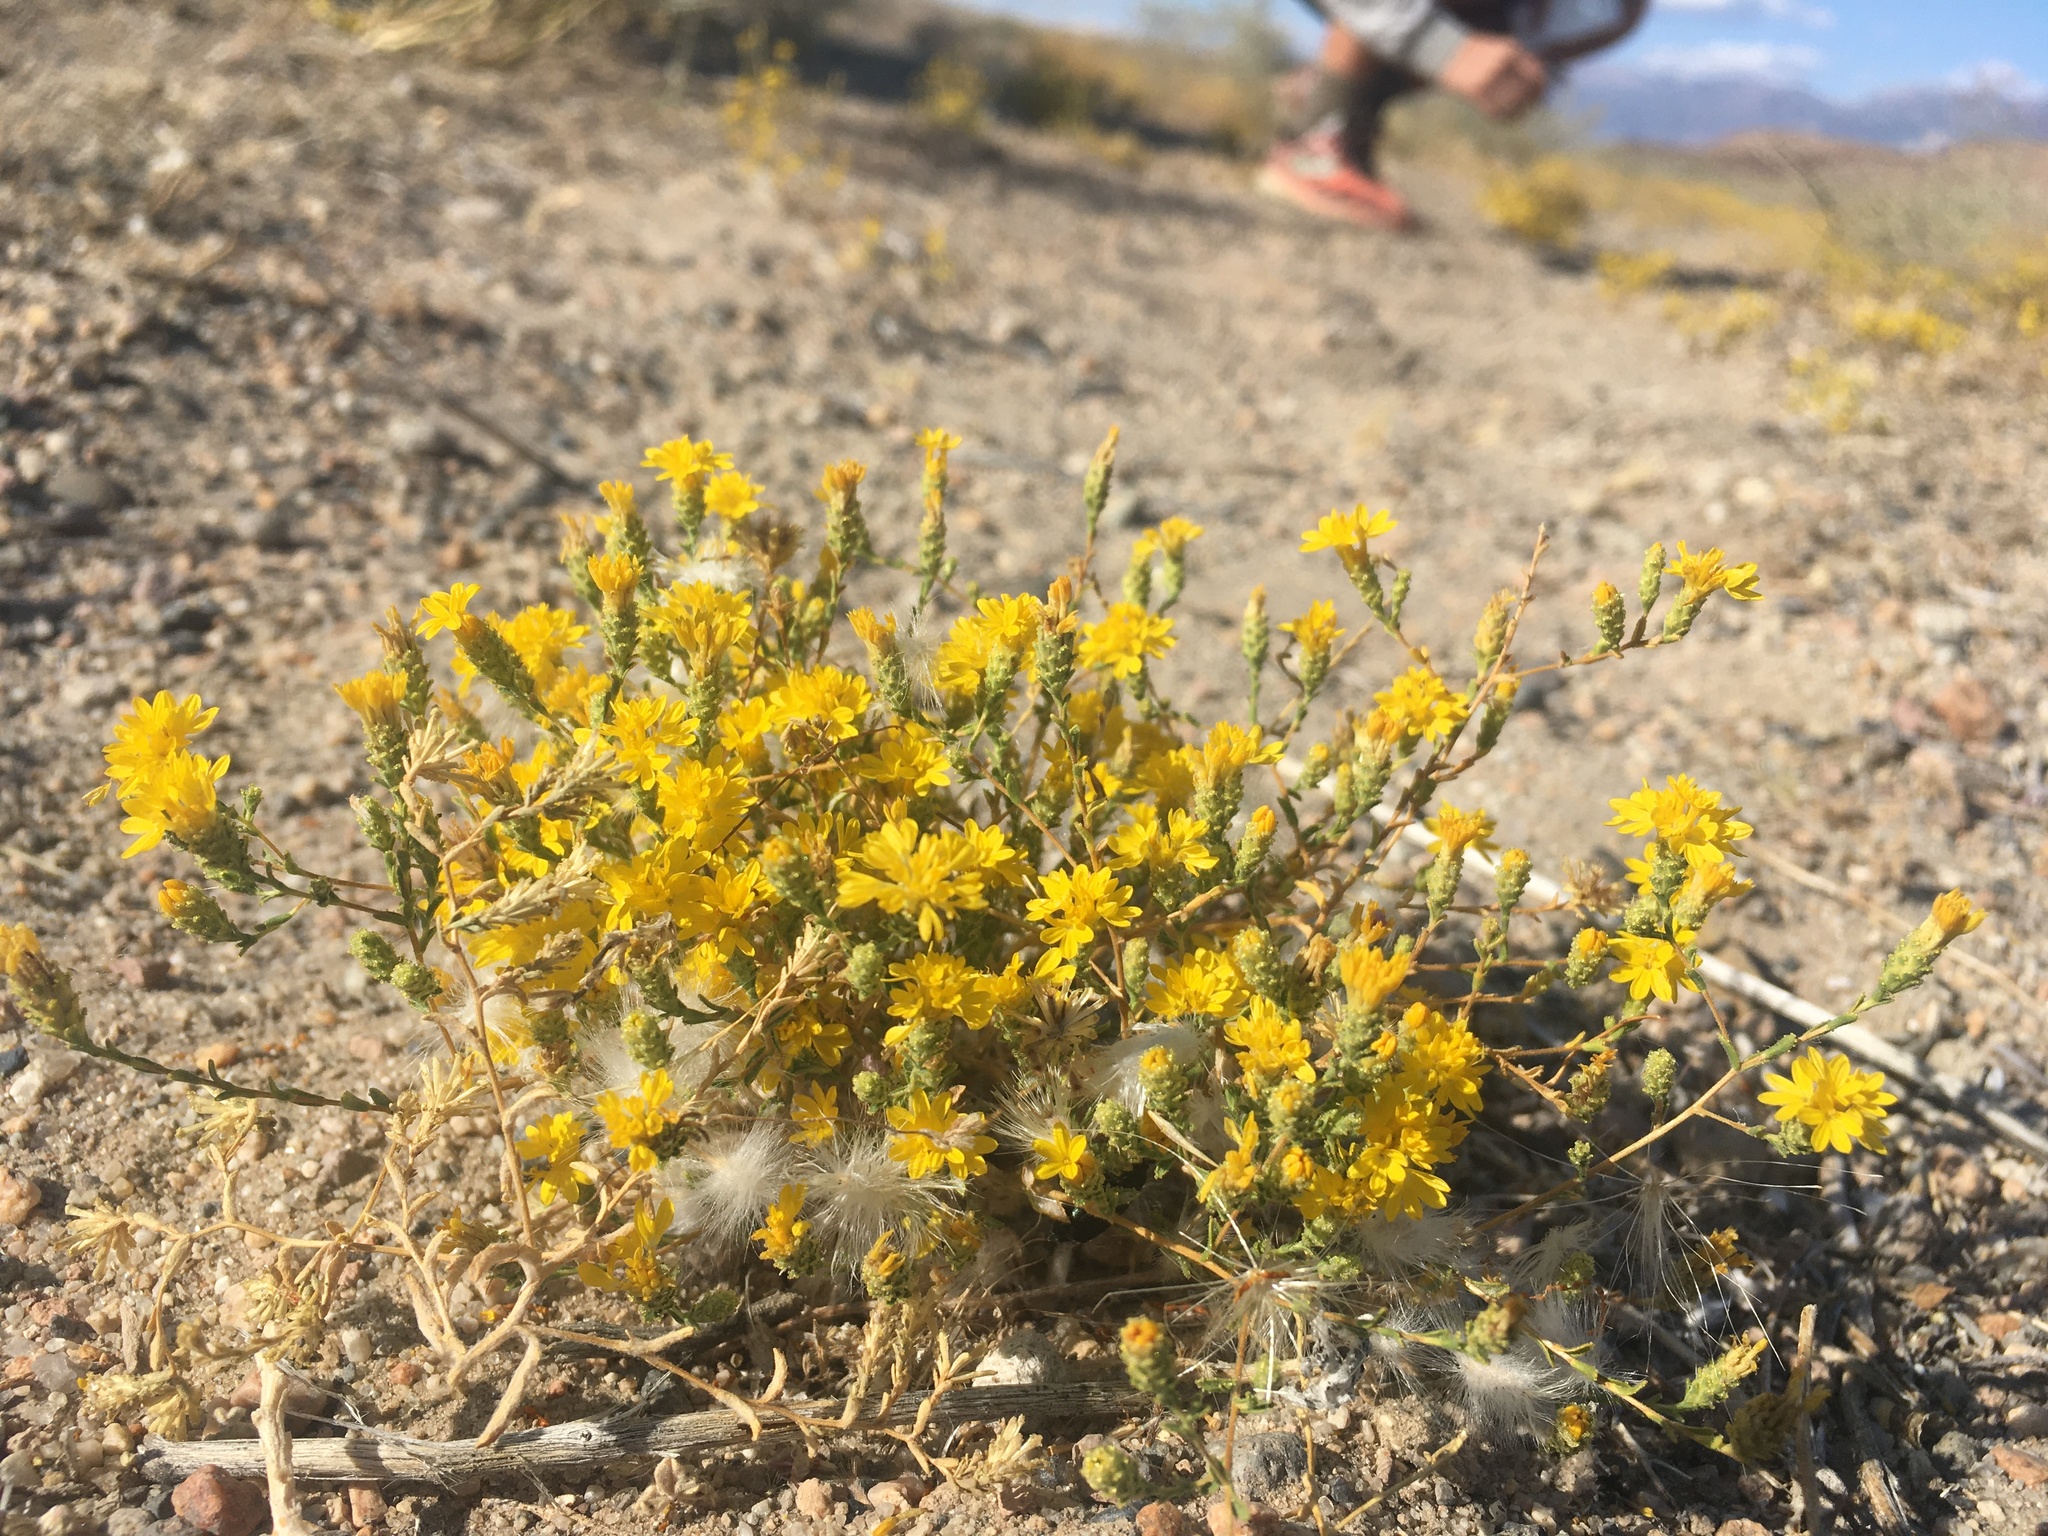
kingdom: Plantae
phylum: Tracheophyta
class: Magnoliopsida
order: Asterales
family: Asteraceae
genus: Lessingia
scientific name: Lessingia glandulifera
